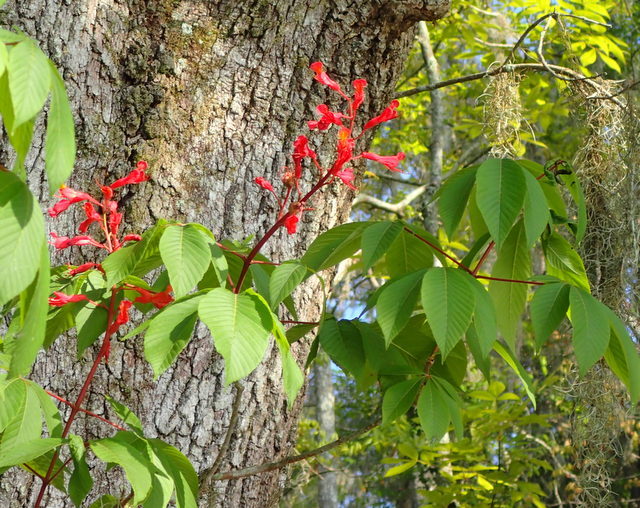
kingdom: Plantae
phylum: Tracheophyta
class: Magnoliopsida
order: Sapindales
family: Sapindaceae
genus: Aesculus
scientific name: Aesculus pavia
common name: Red buckeye
